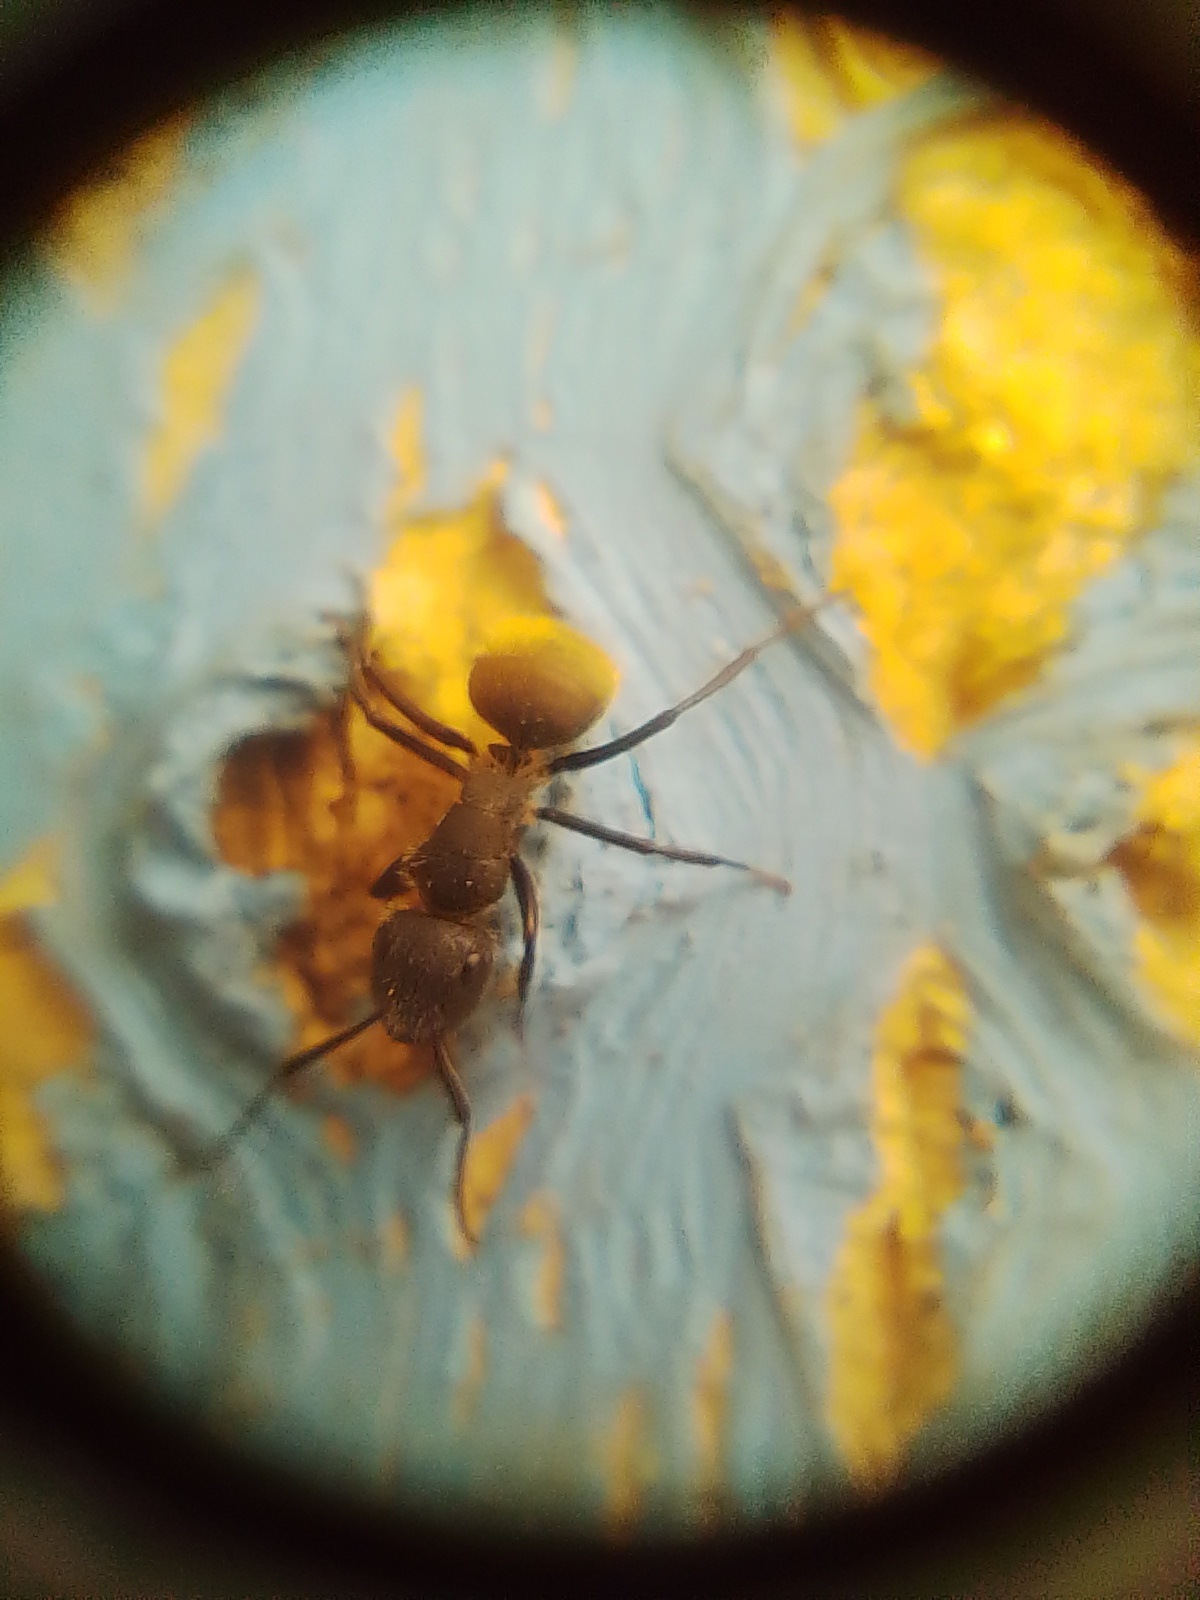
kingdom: Animalia
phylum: Arthropoda
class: Insecta
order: Hymenoptera
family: Formicidae
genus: Camponotus
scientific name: Camponotus mus
